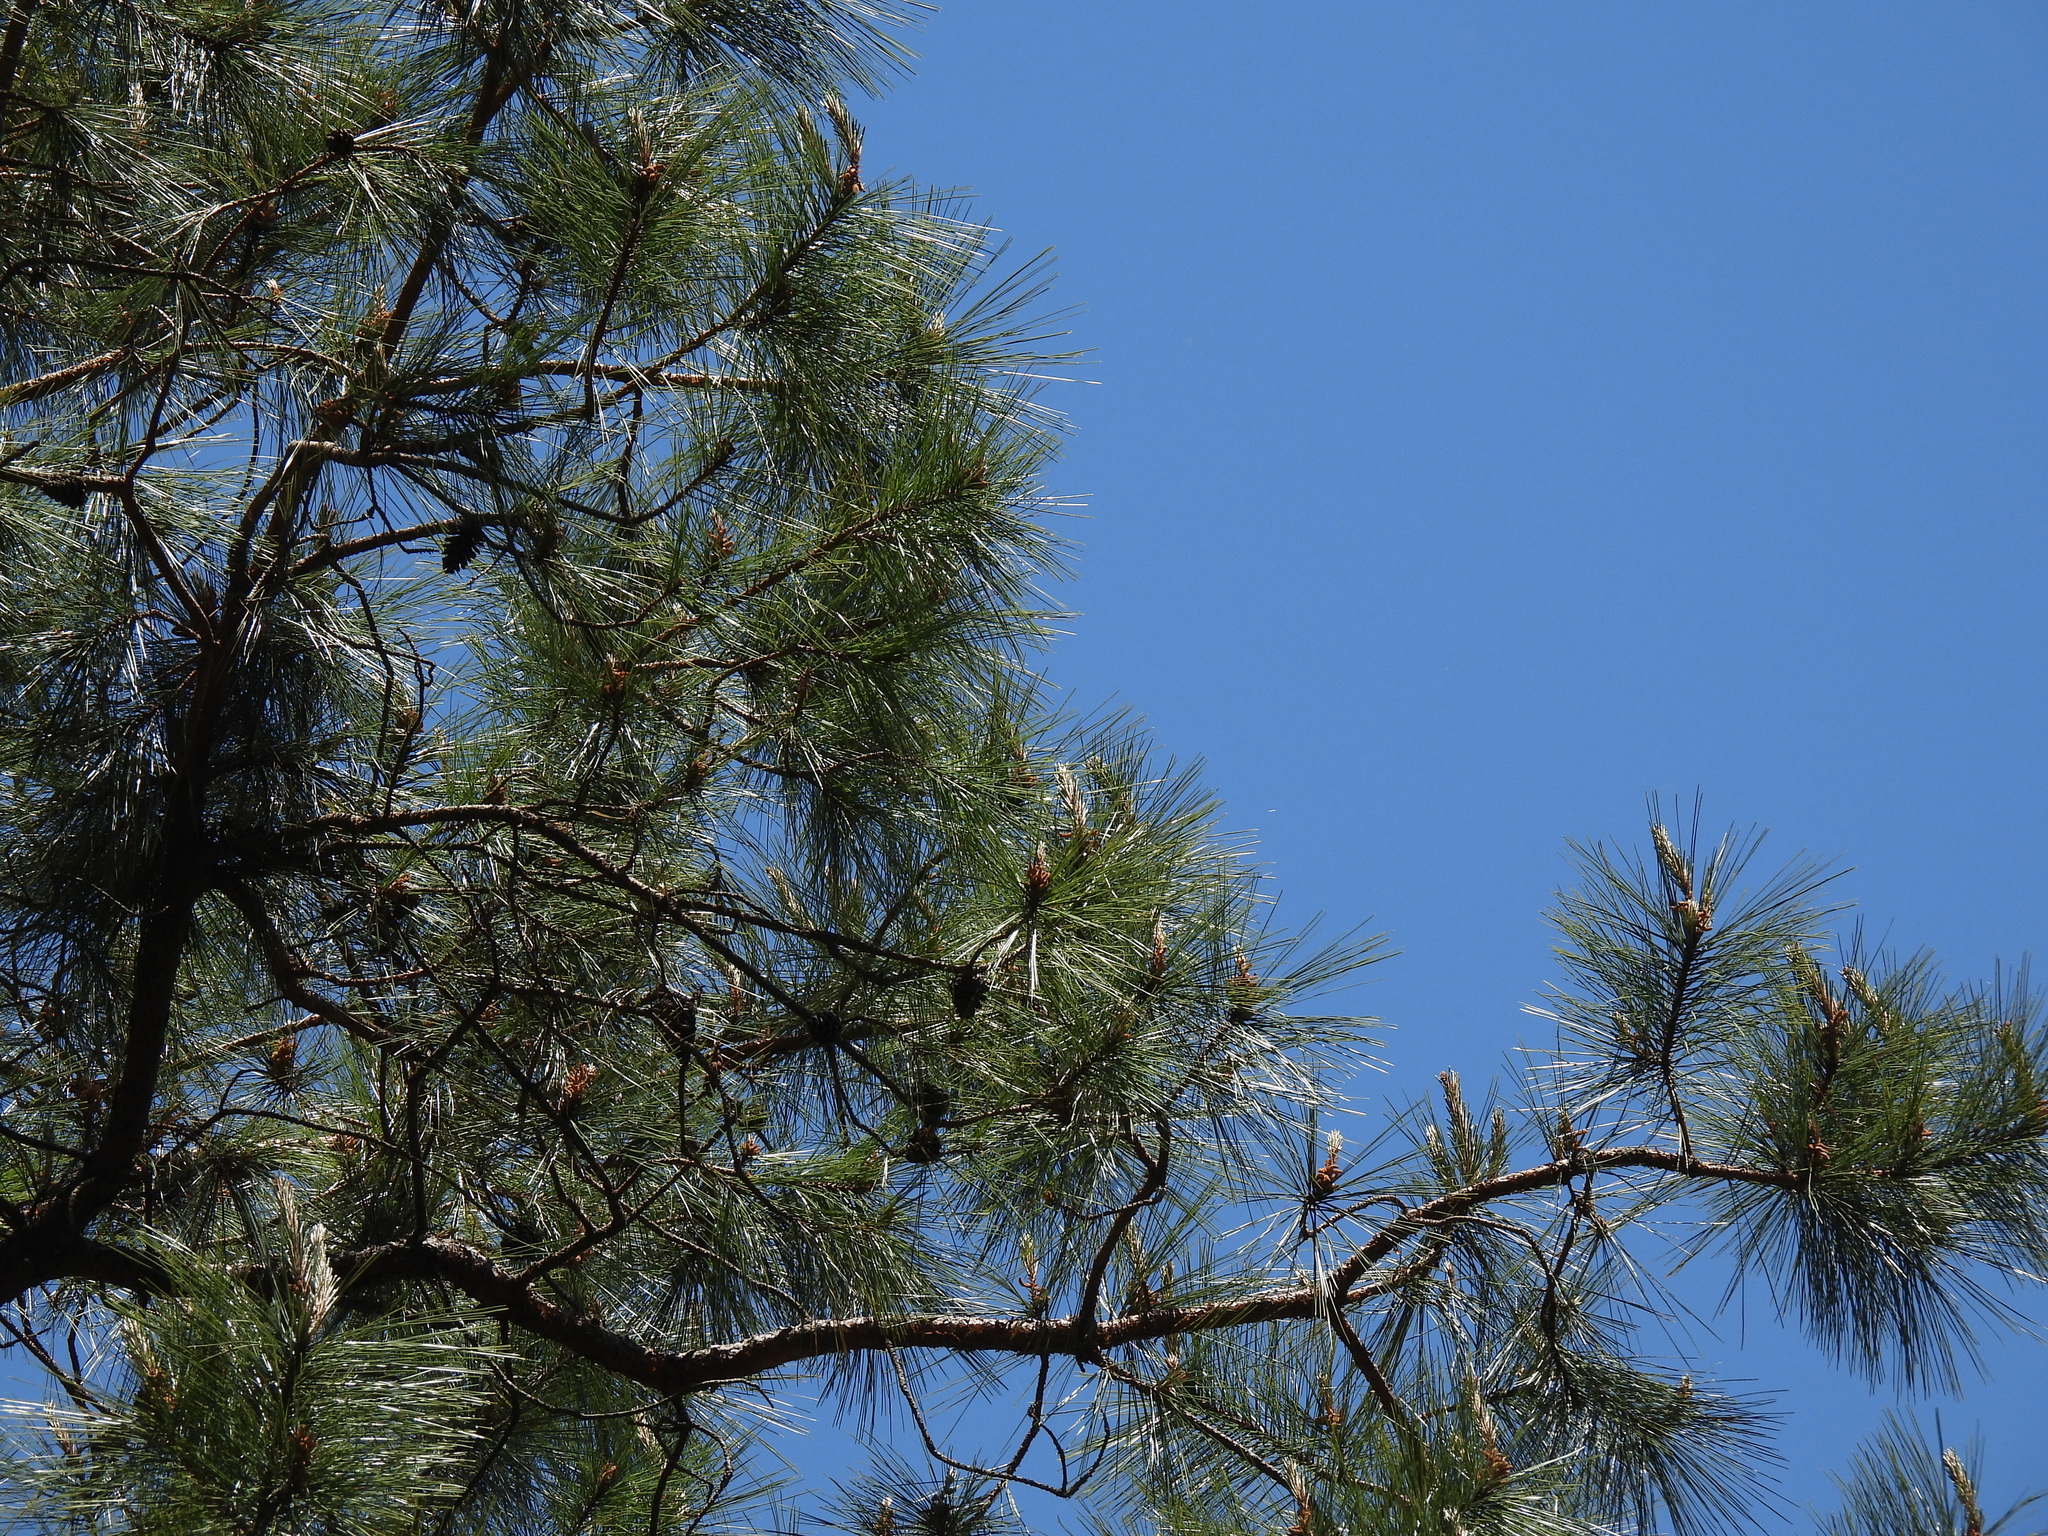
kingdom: Plantae
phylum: Tracheophyta
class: Pinopsida
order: Pinales
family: Pinaceae
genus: Pinus
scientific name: Pinus teocote
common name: Aztec pine
